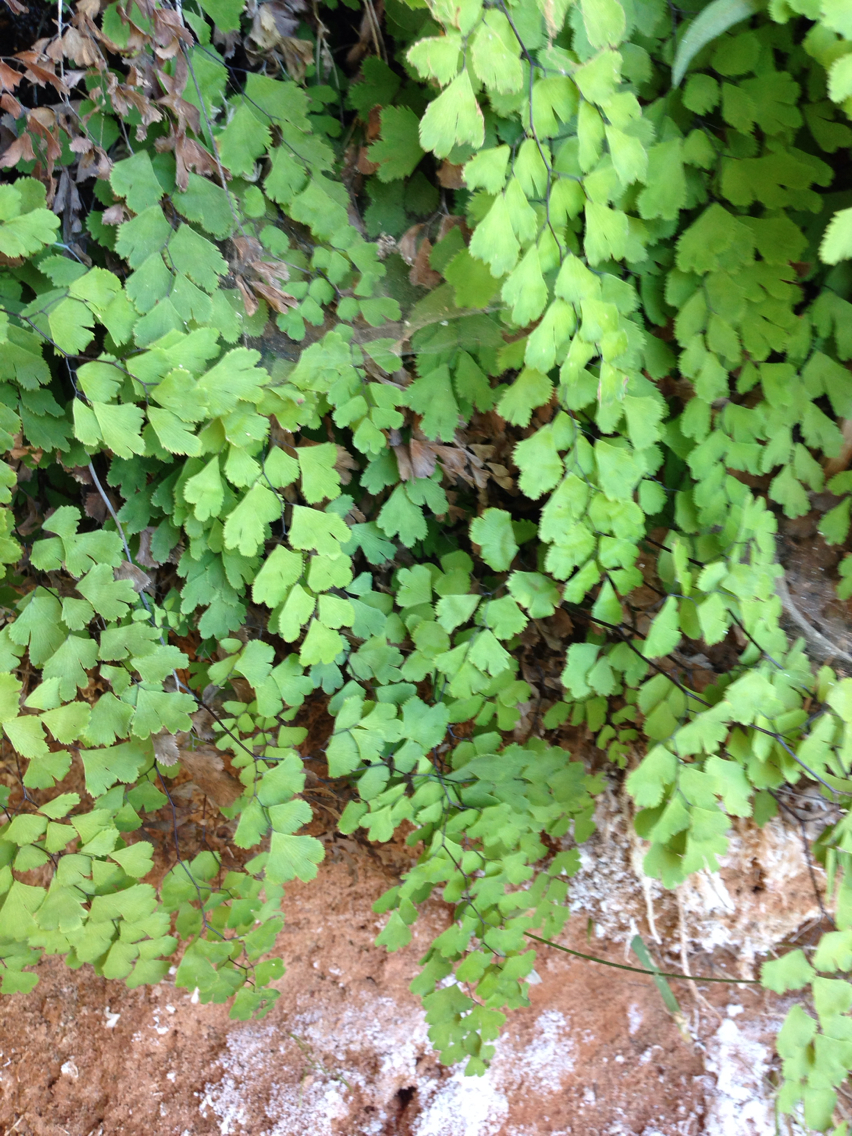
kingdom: Plantae
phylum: Tracheophyta
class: Polypodiopsida
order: Polypodiales
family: Pteridaceae
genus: Adiantum
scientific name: Adiantum capillus-veneris
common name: Maidenhair fern
